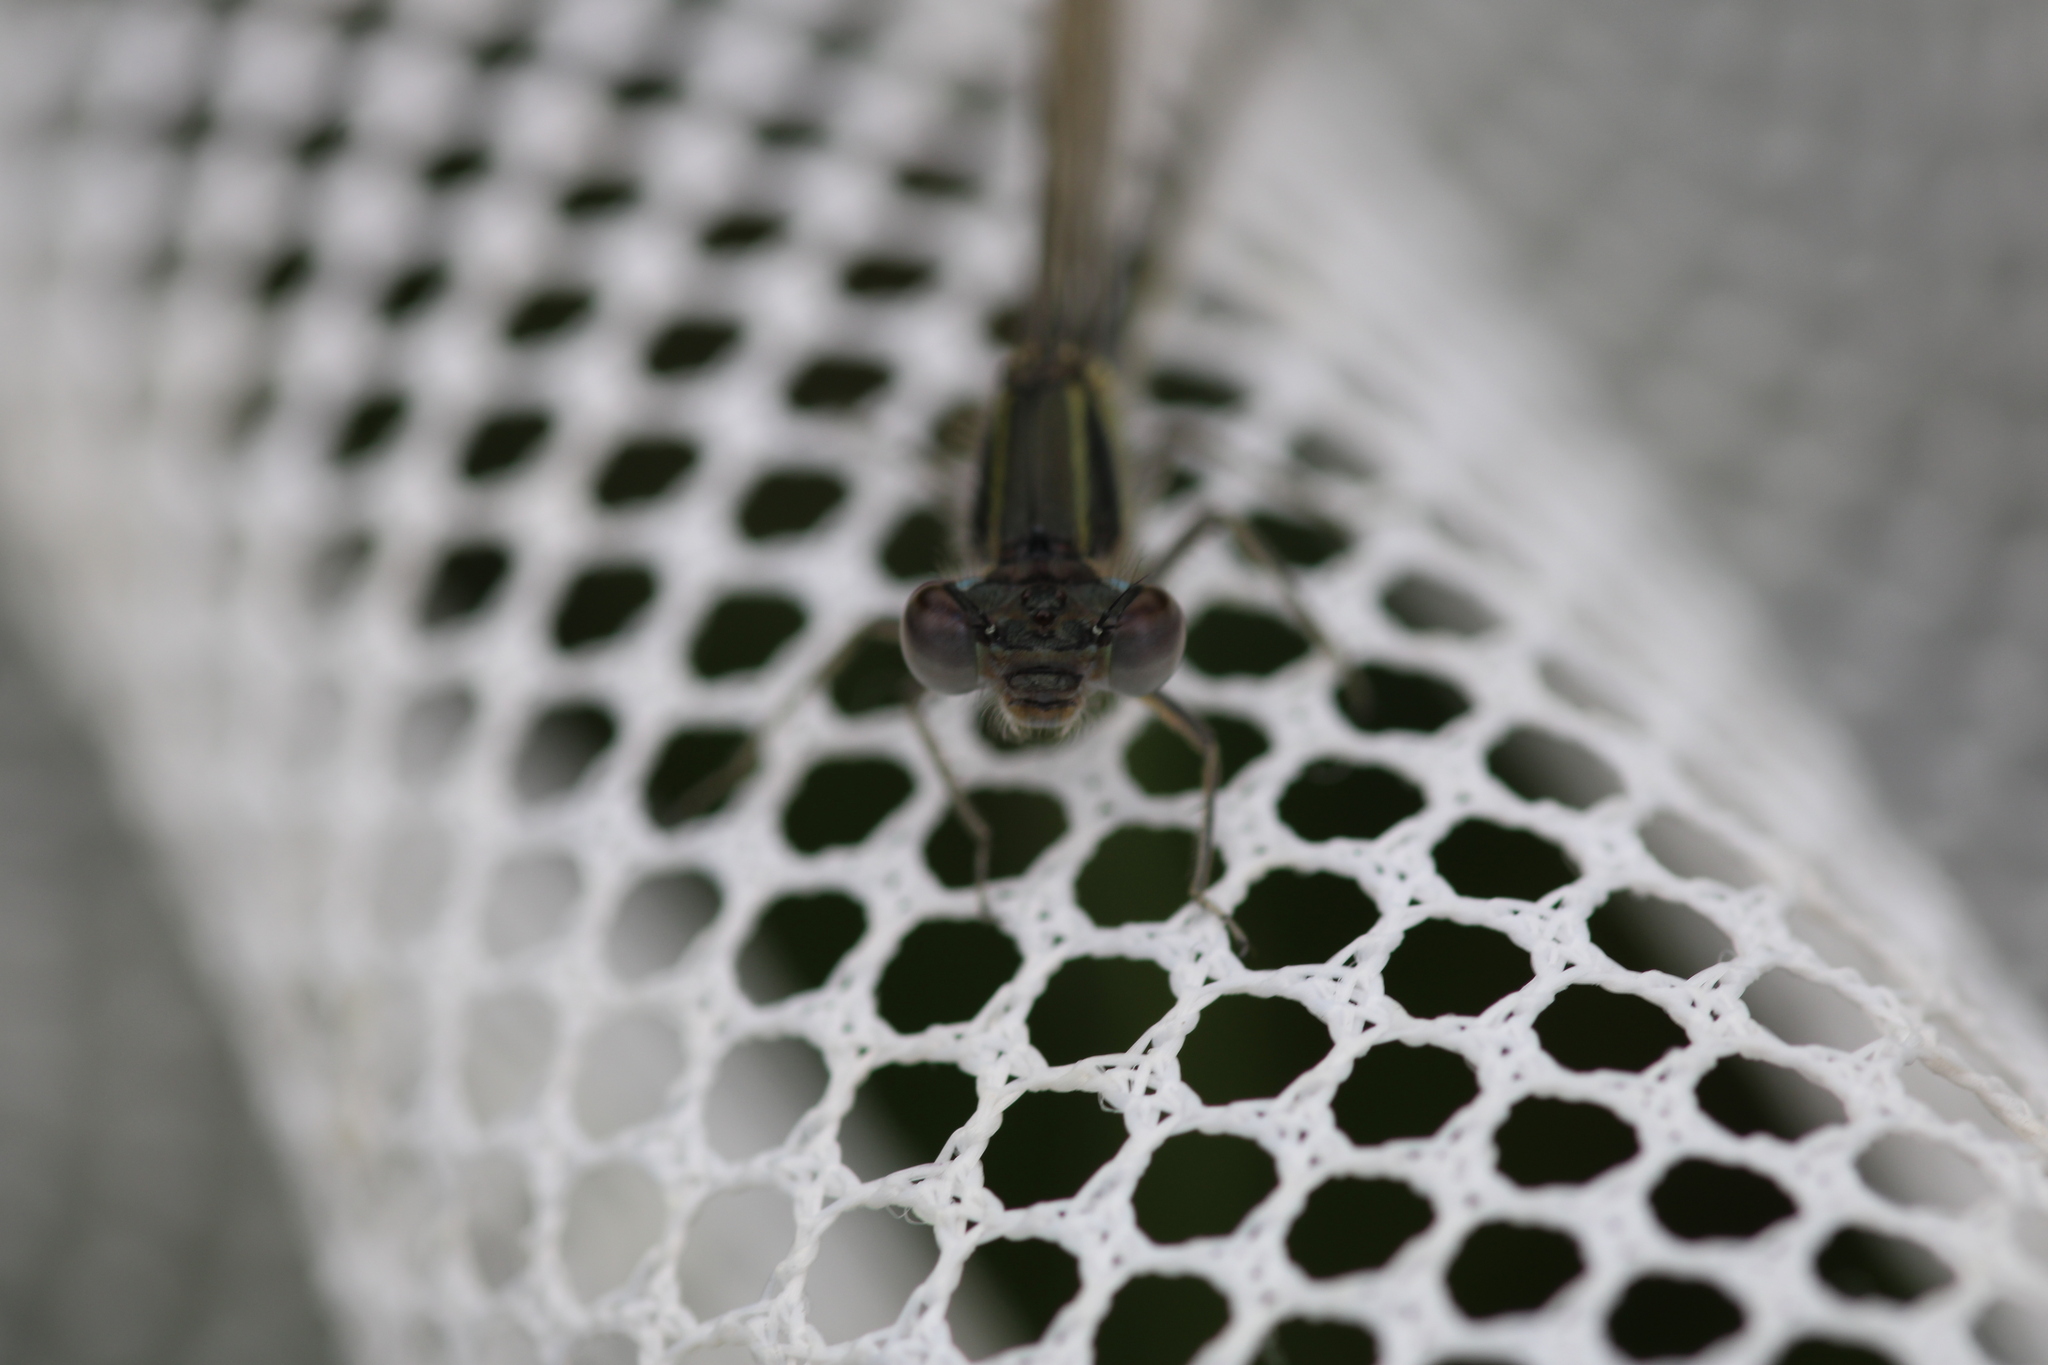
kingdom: Animalia
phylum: Arthropoda
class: Insecta
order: Odonata
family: Coenagrionidae
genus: Ischnura
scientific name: Ischnura elegans
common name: Blue-tailed damselfly
